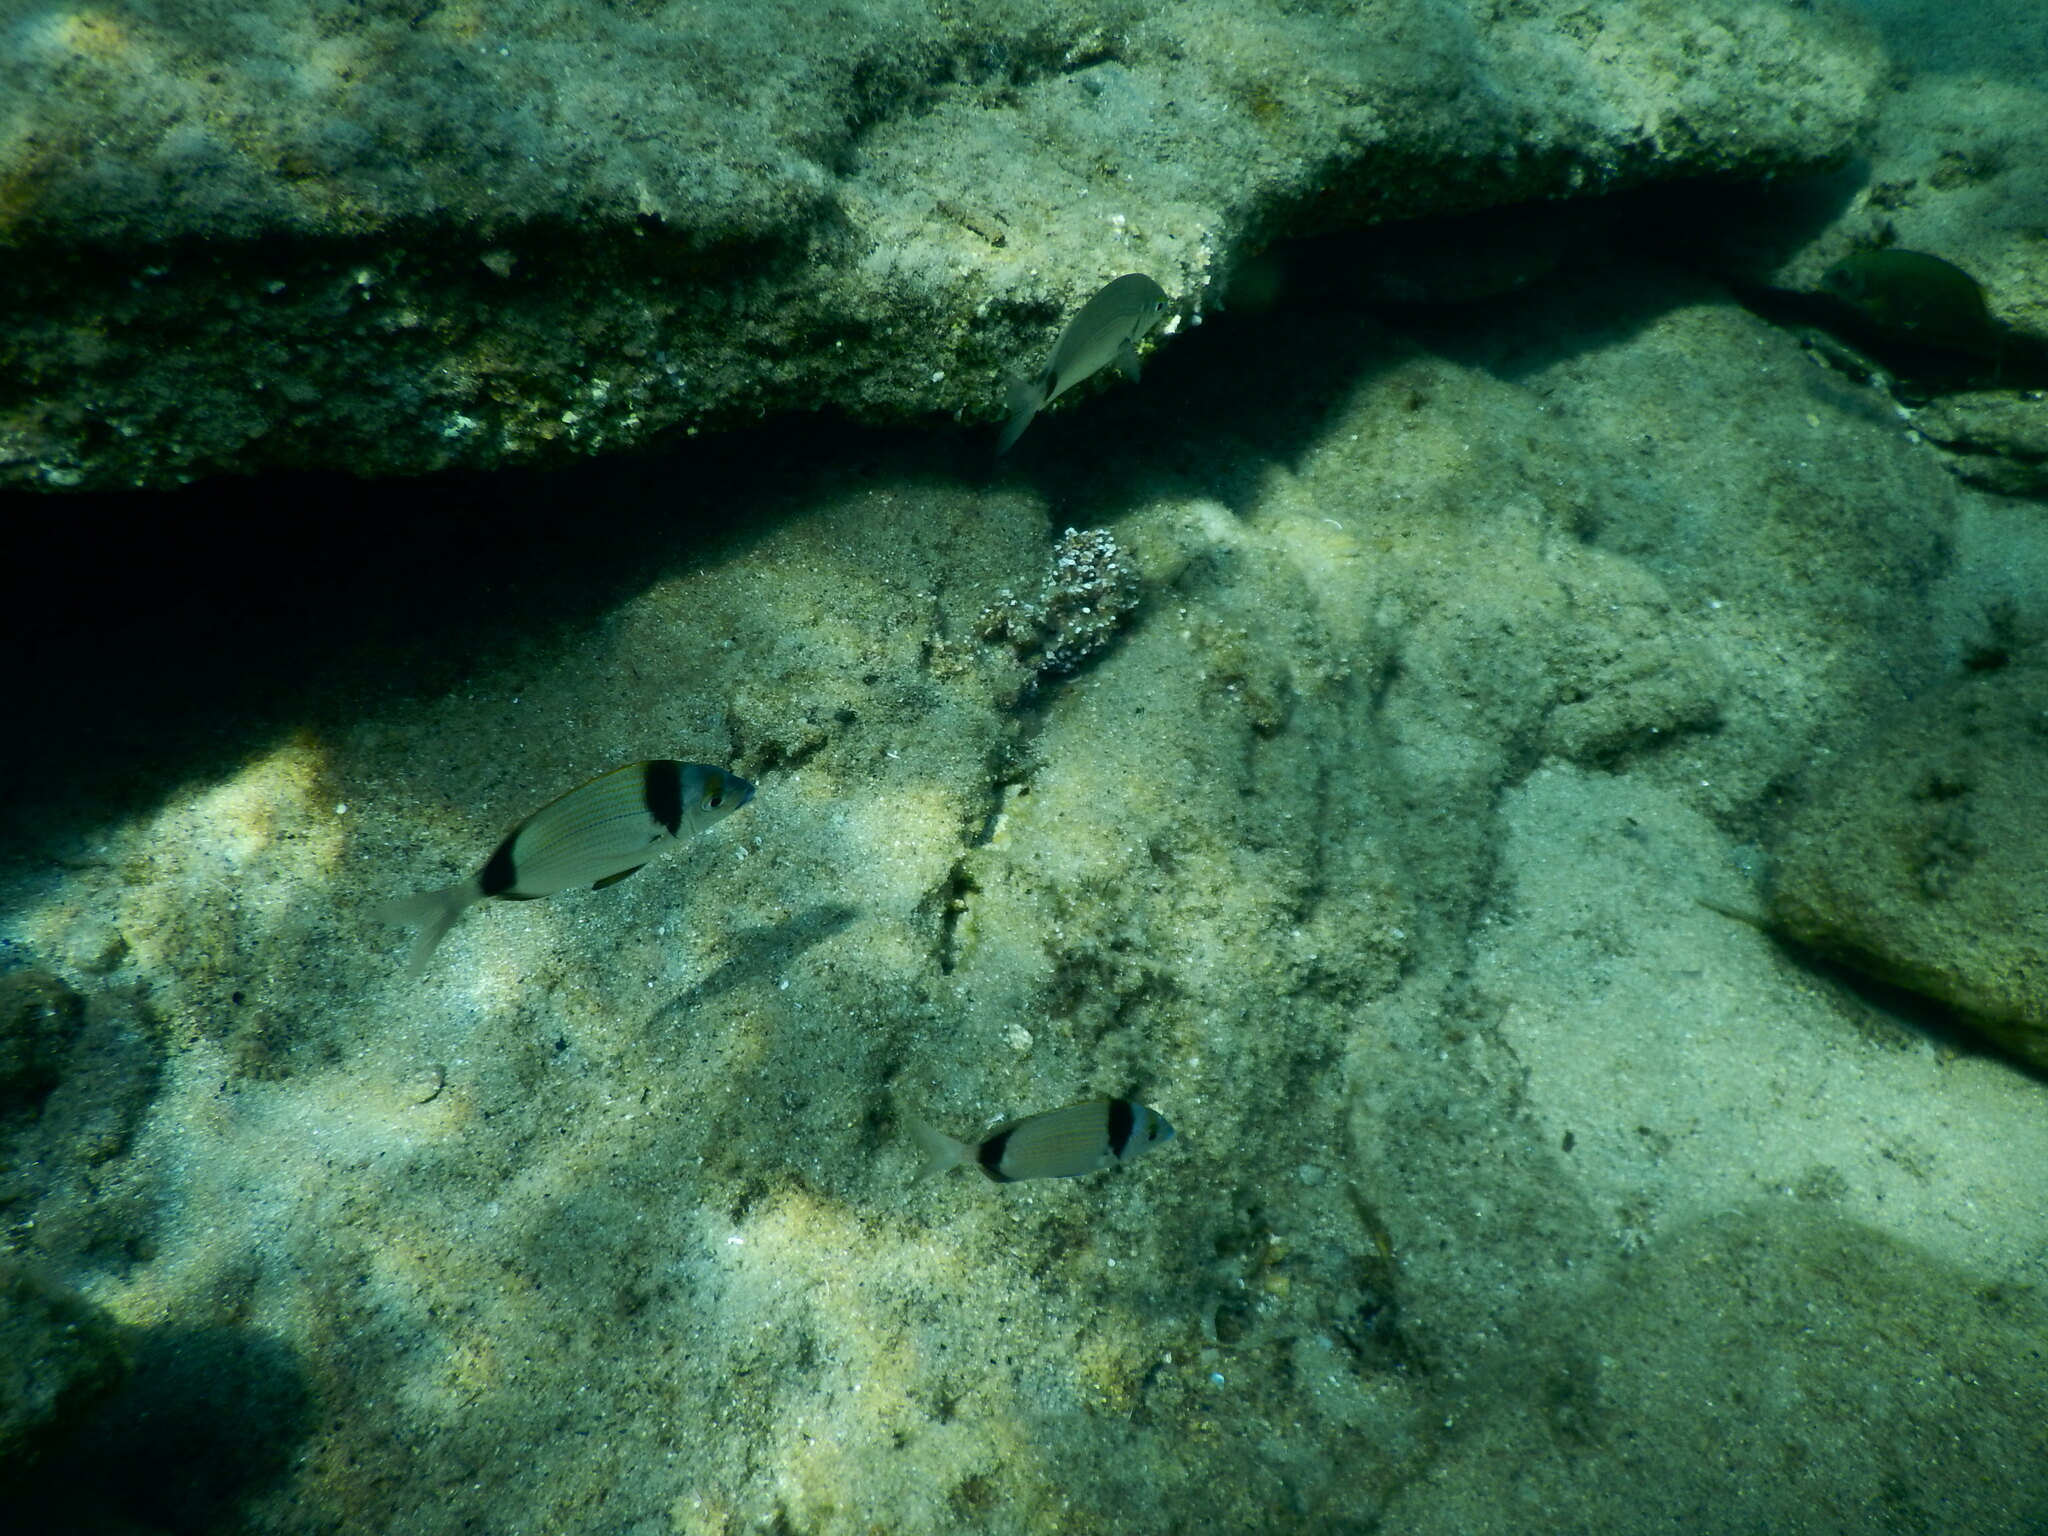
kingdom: Animalia
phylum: Chordata
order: Perciformes
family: Sparidae
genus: Diplodus
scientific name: Diplodus vulgaris
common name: Common two-banded seabream
